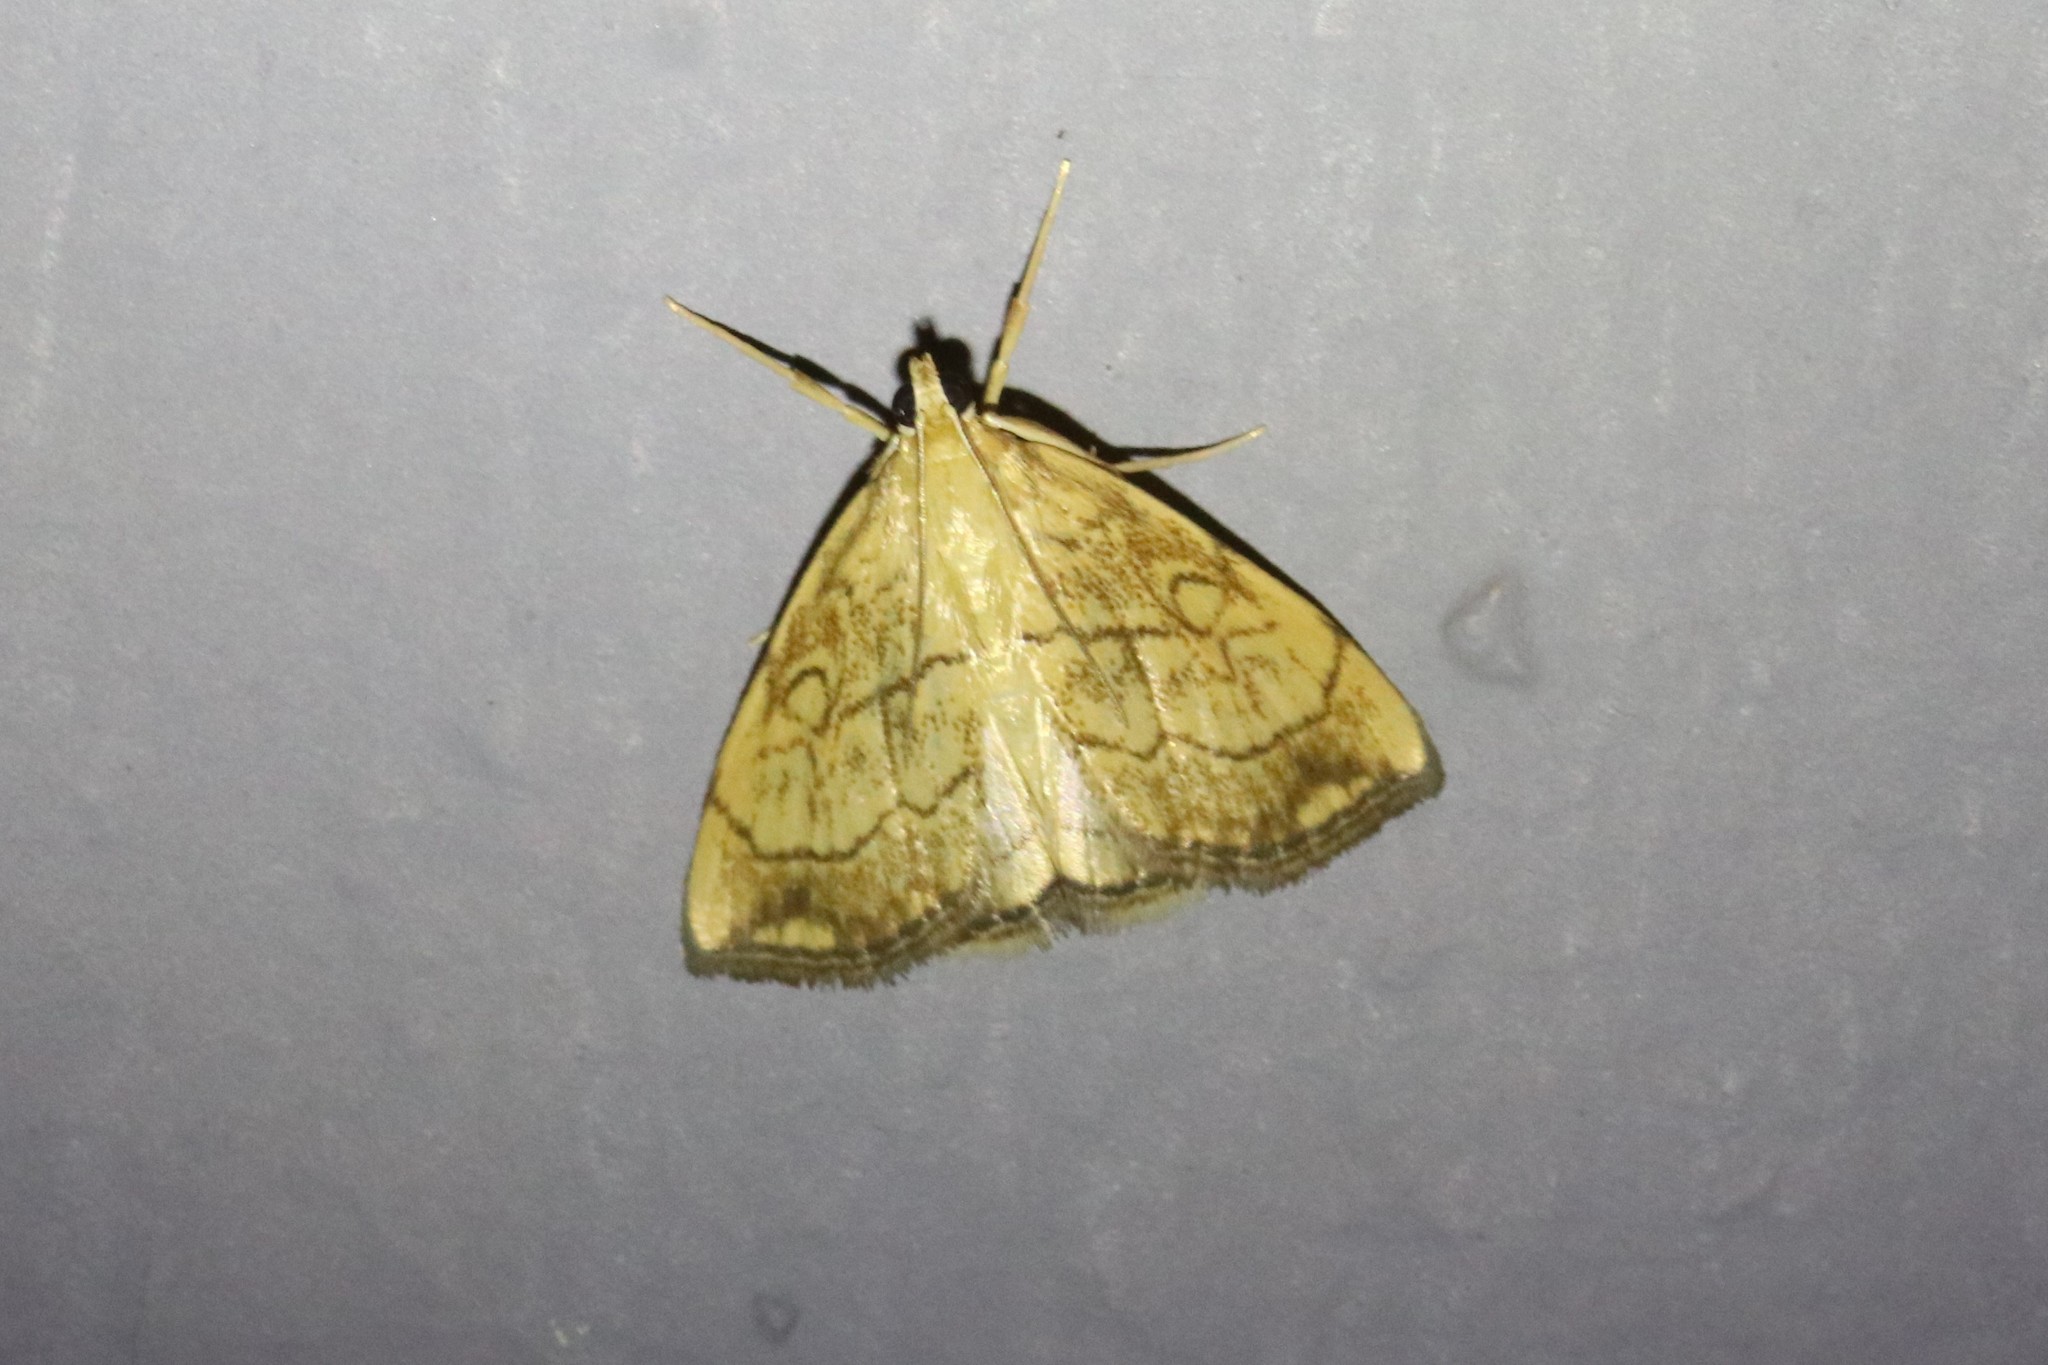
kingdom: Animalia
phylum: Arthropoda
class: Insecta
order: Lepidoptera
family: Crambidae
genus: Evergestis
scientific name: Evergestis pallidata
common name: Chequered pearl
